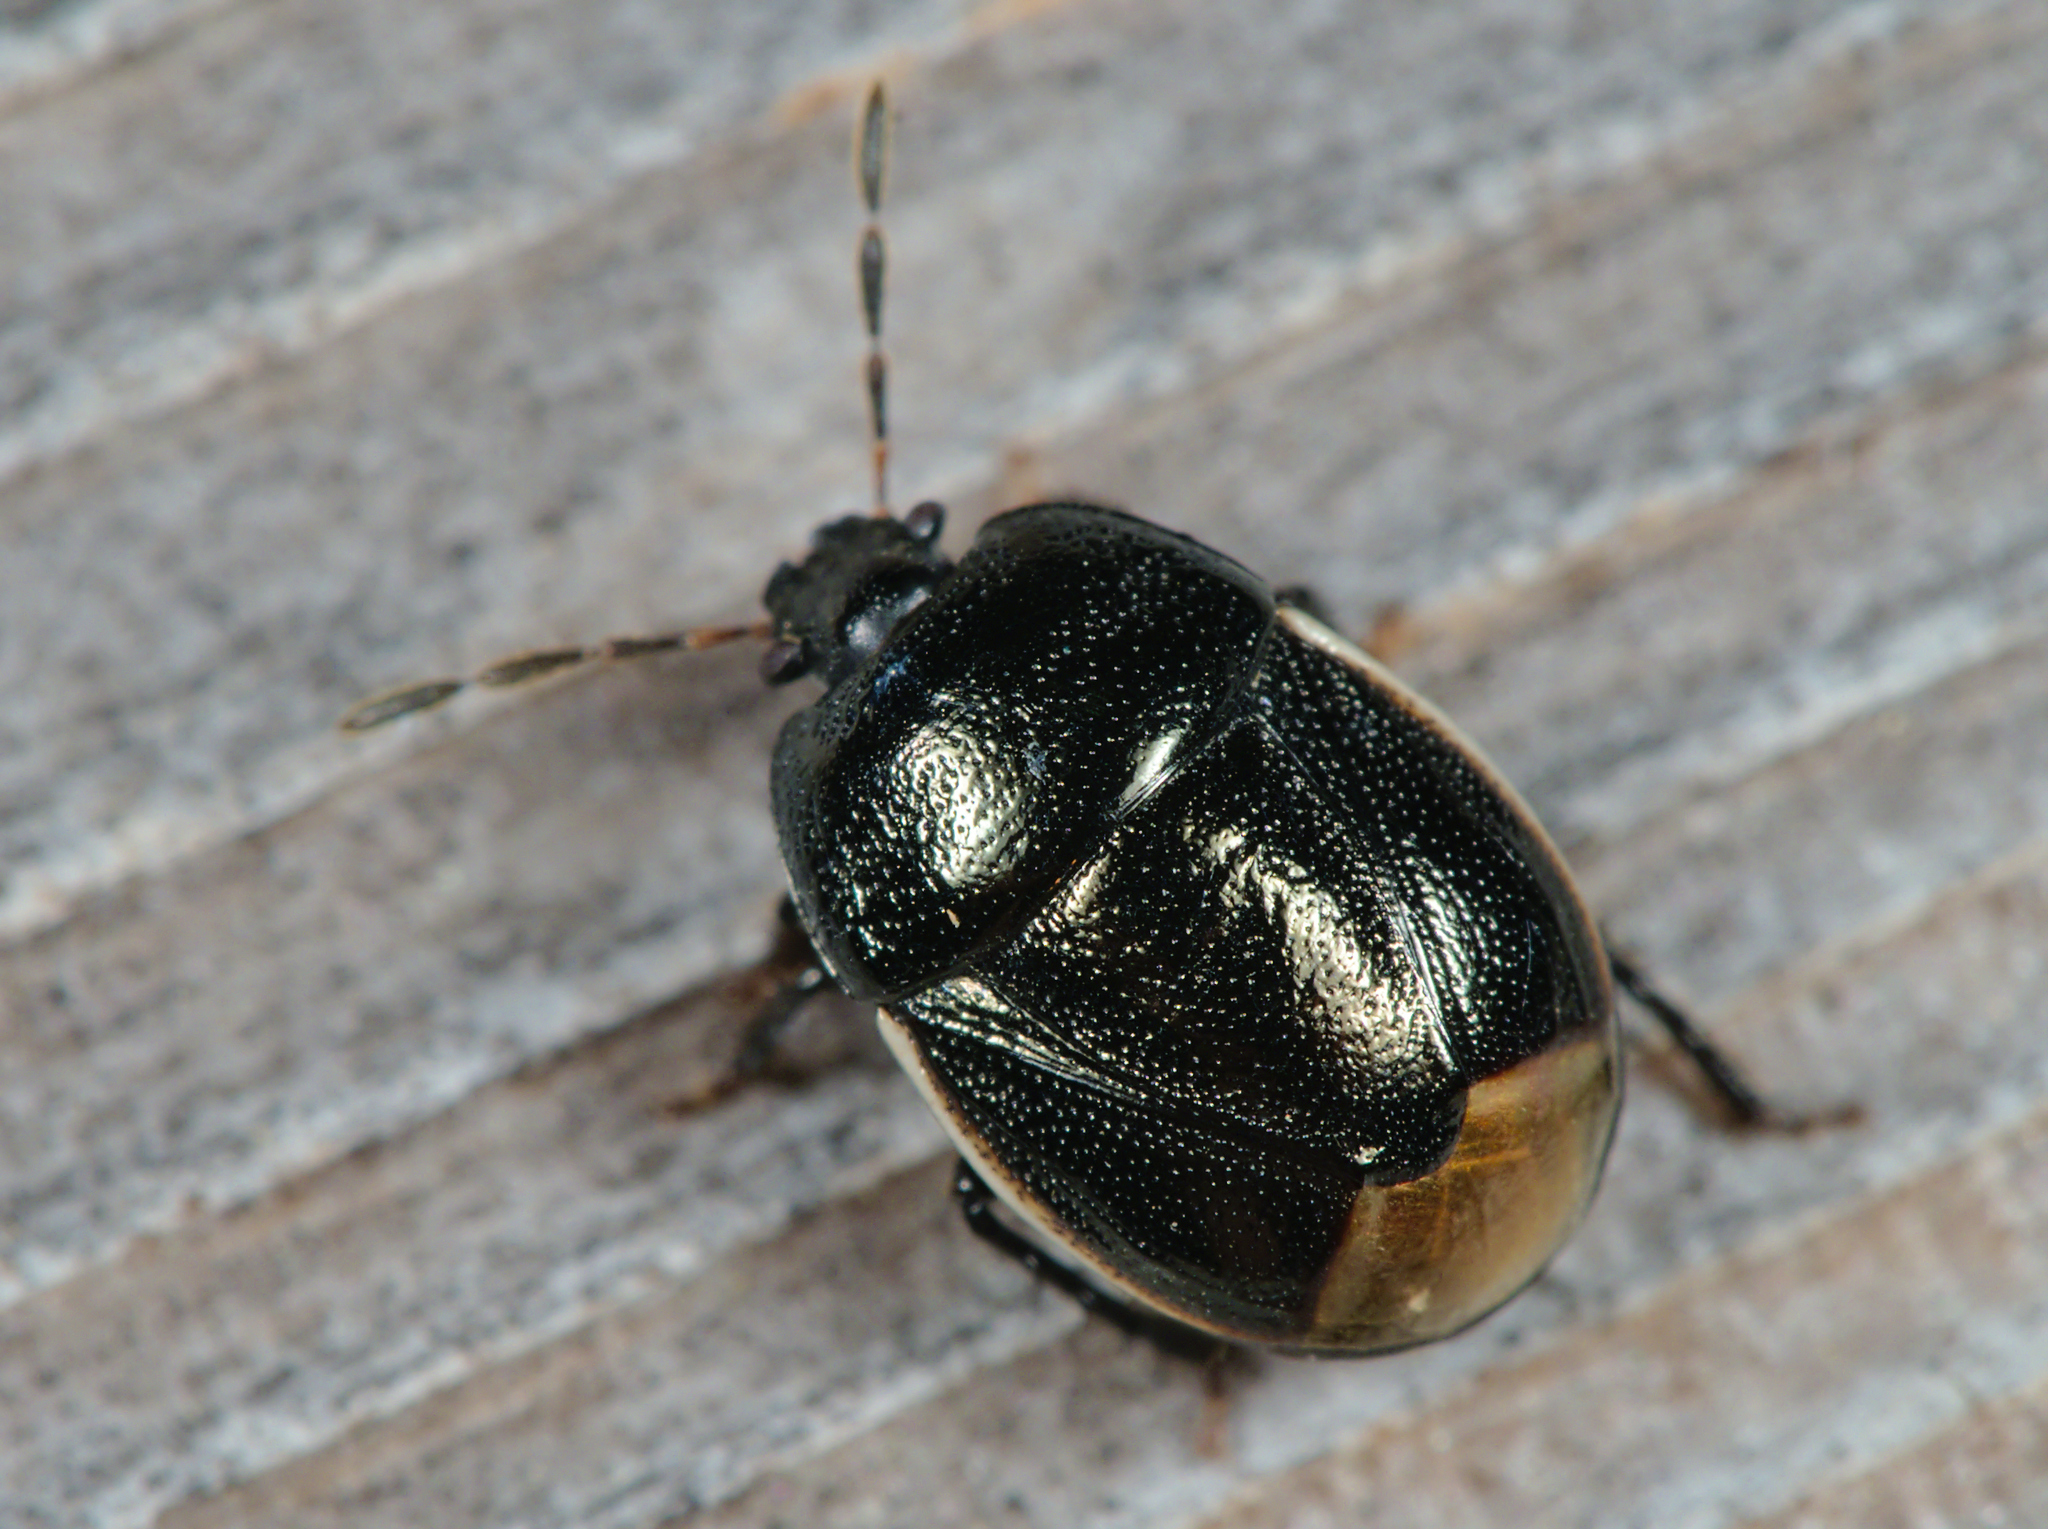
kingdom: Animalia
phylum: Arthropoda
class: Insecta
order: Hemiptera
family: Cydnidae
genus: Legnotus
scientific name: Legnotus limbosus
